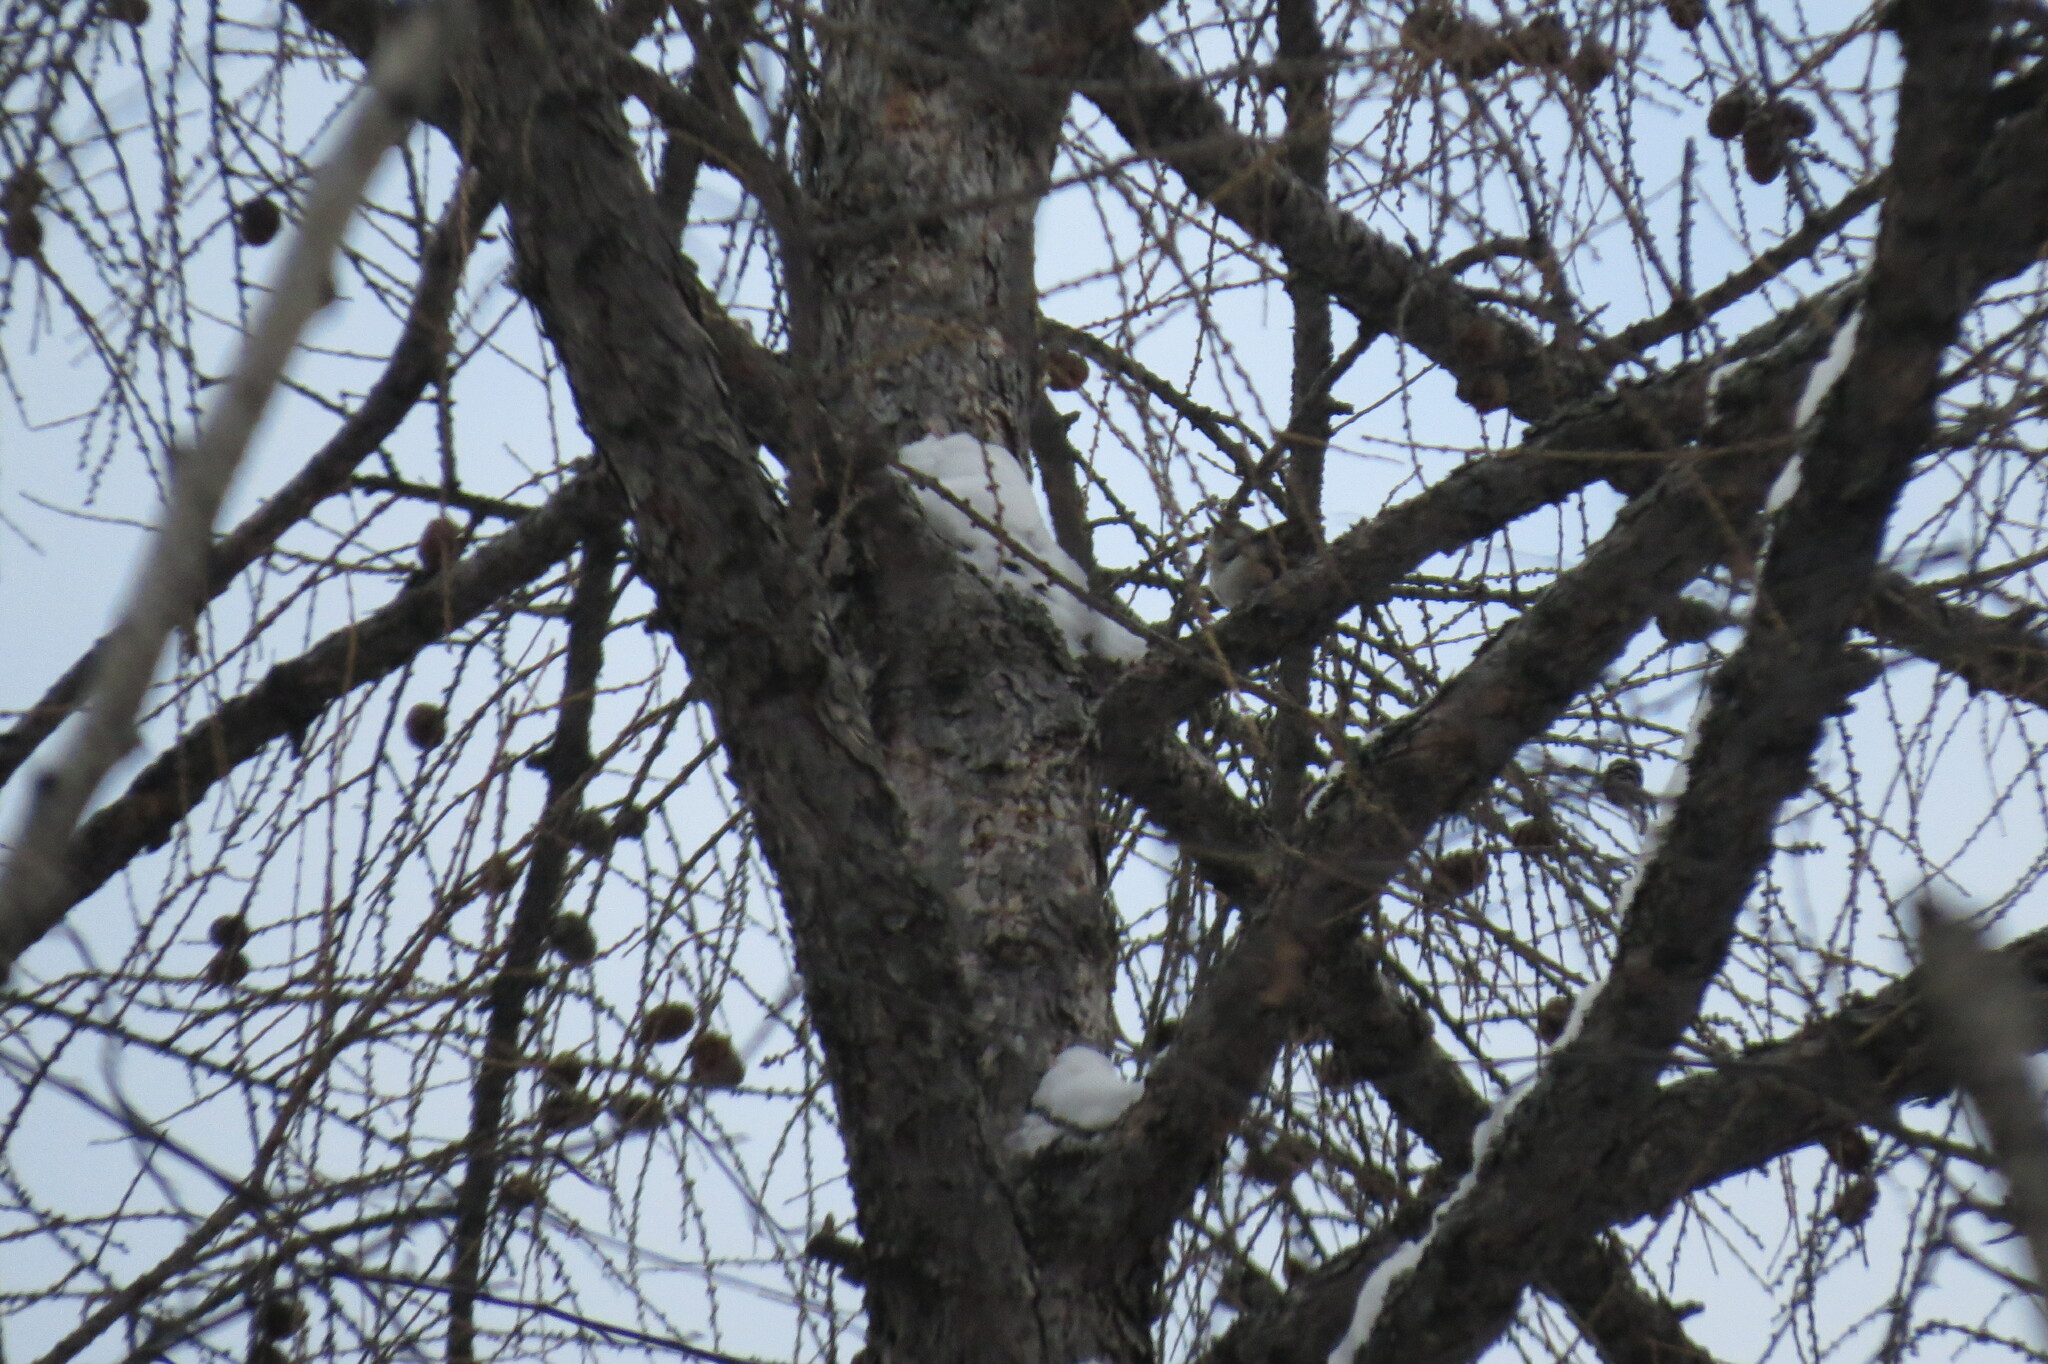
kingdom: Animalia
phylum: Chordata
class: Aves
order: Passeriformes
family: Sittidae
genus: Sitta
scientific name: Sitta europaea
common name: Eurasian nuthatch
